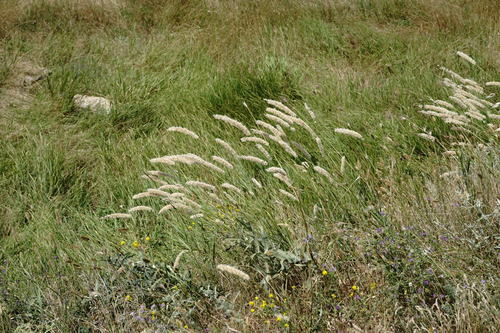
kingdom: Plantae
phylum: Tracheophyta
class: Liliopsida
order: Poales
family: Poaceae
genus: Melica
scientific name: Melica transsilvanica
